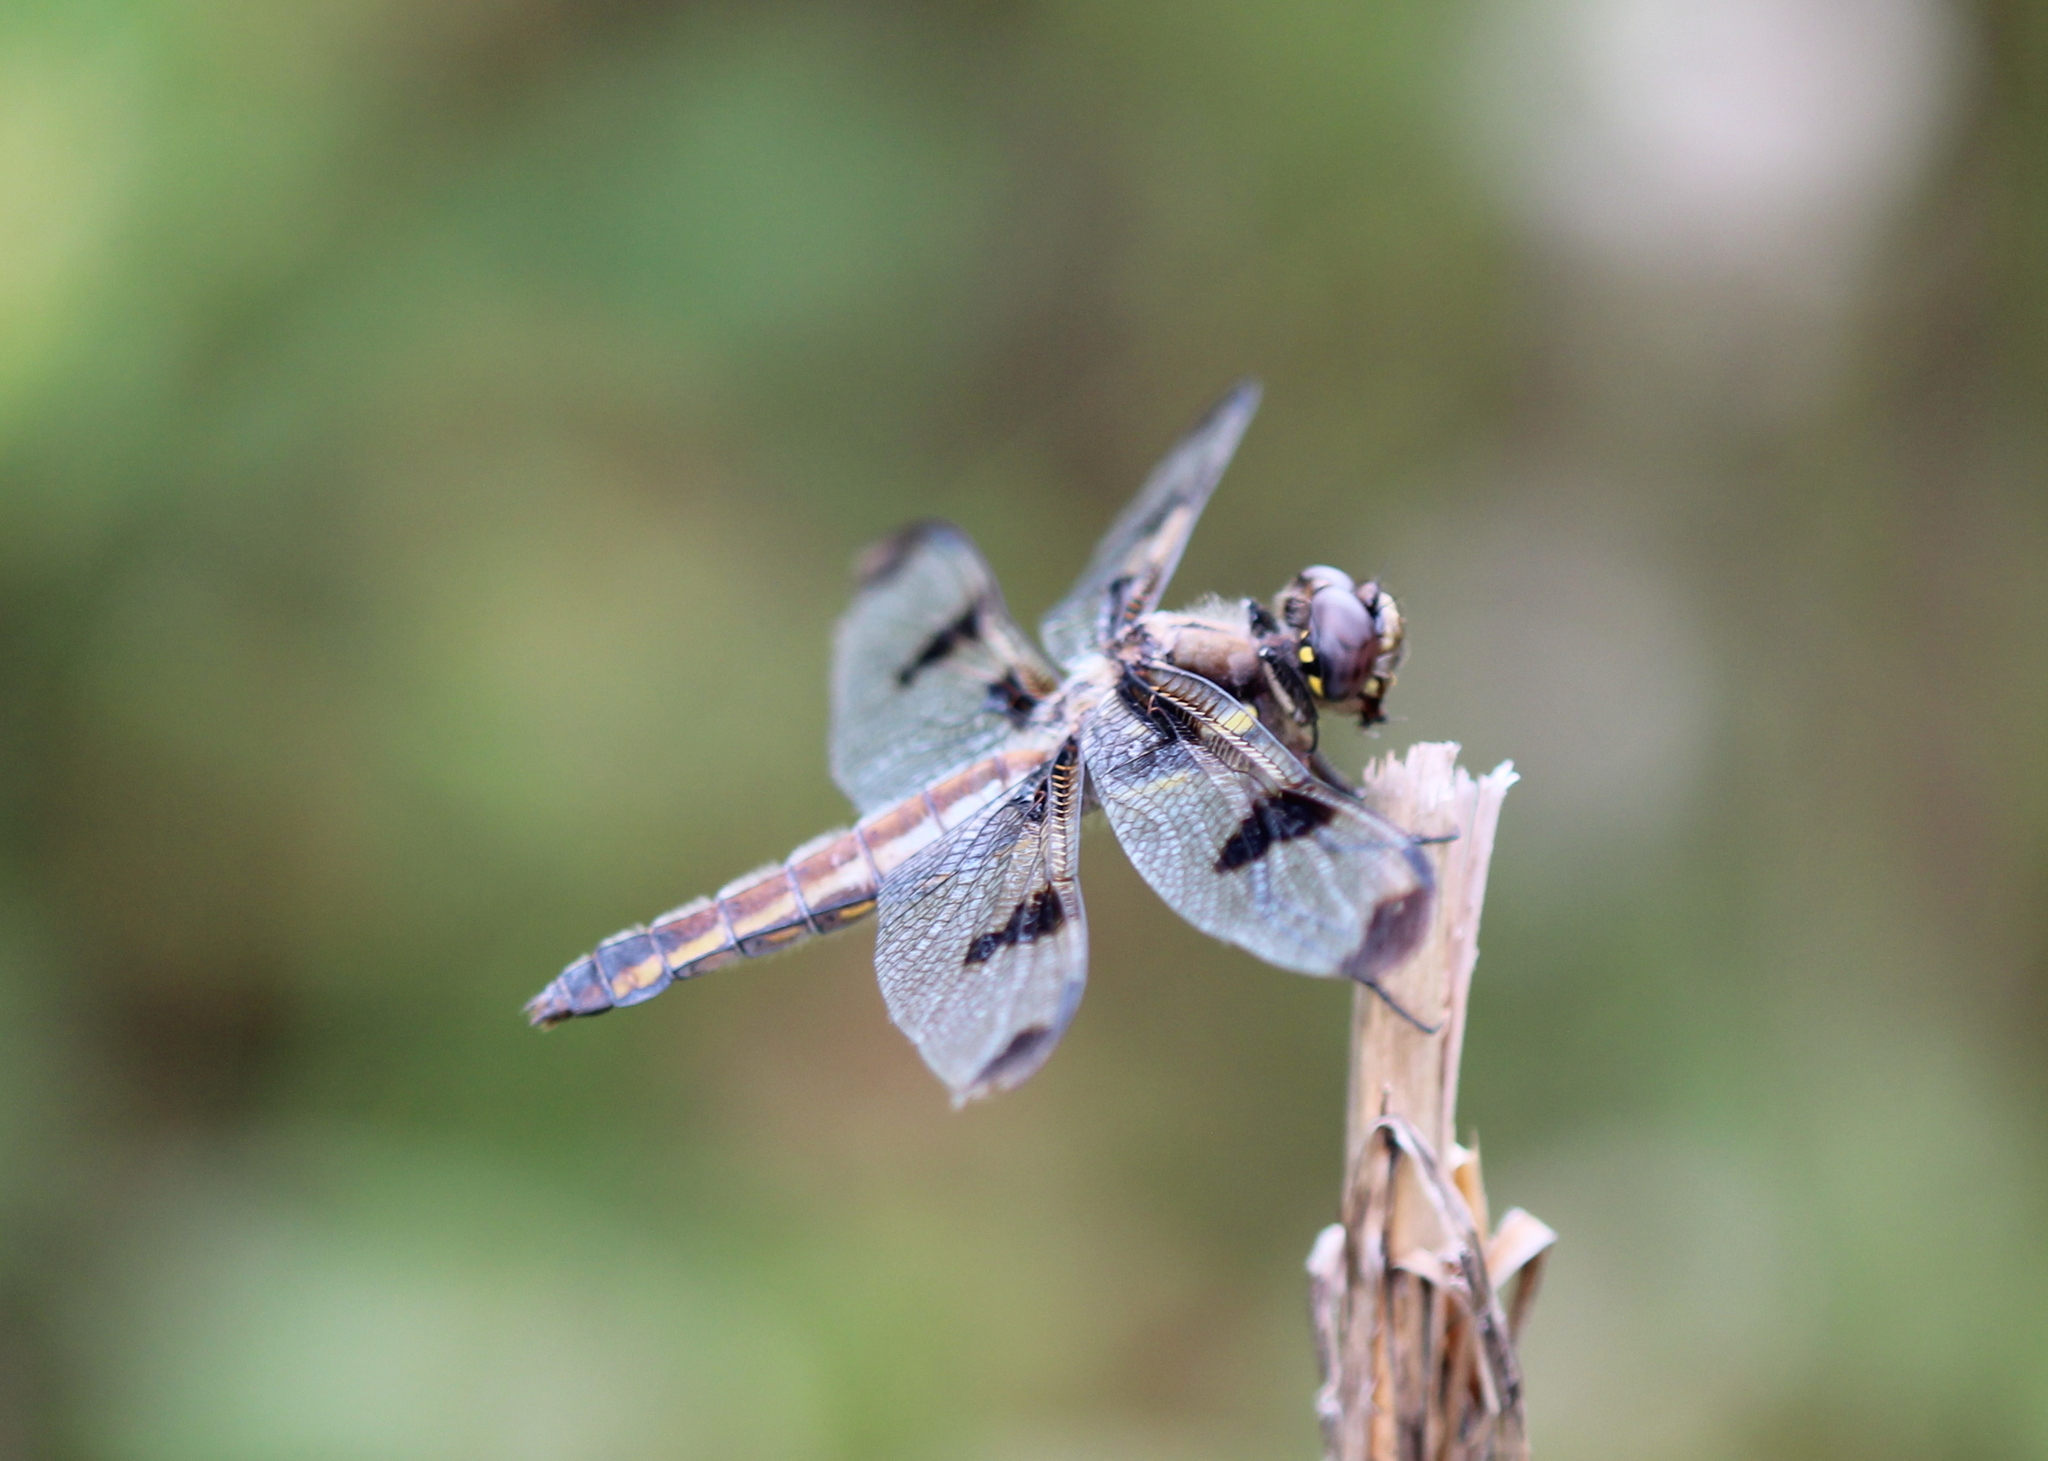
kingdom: Animalia
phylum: Arthropoda
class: Insecta
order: Odonata
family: Libellulidae
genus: Libellula
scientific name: Libellula pulchella
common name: Twelve-spotted skimmer
